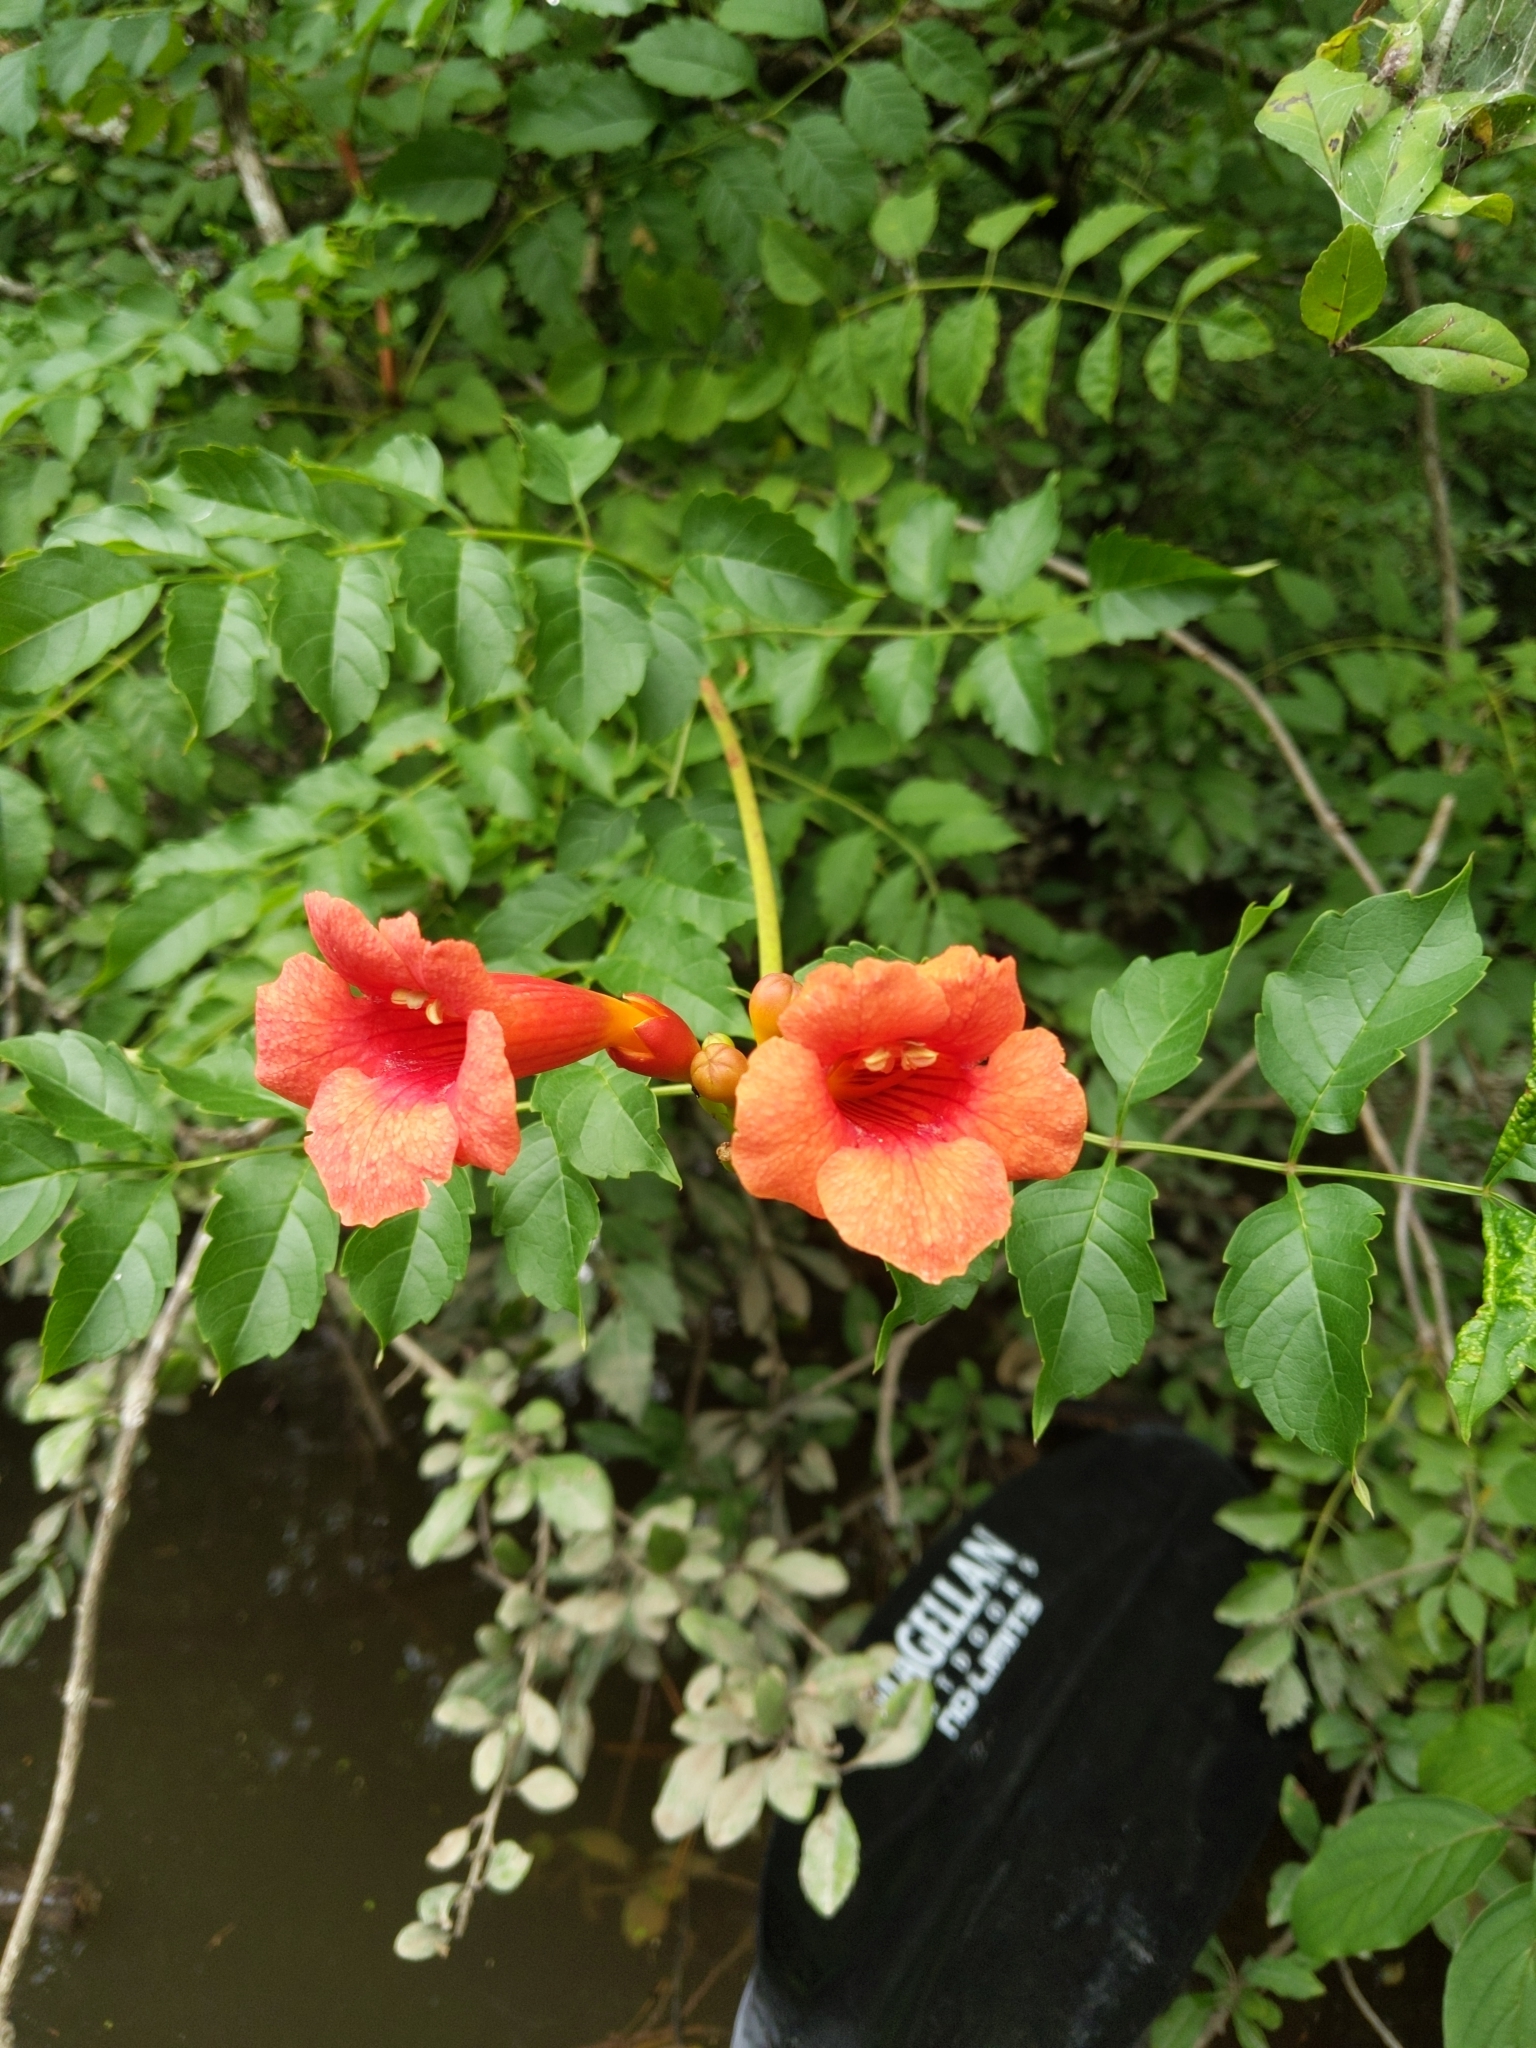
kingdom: Plantae
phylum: Tracheophyta
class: Magnoliopsida
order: Lamiales
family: Bignoniaceae
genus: Campsis
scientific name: Campsis radicans
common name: Trumpet-creeper
